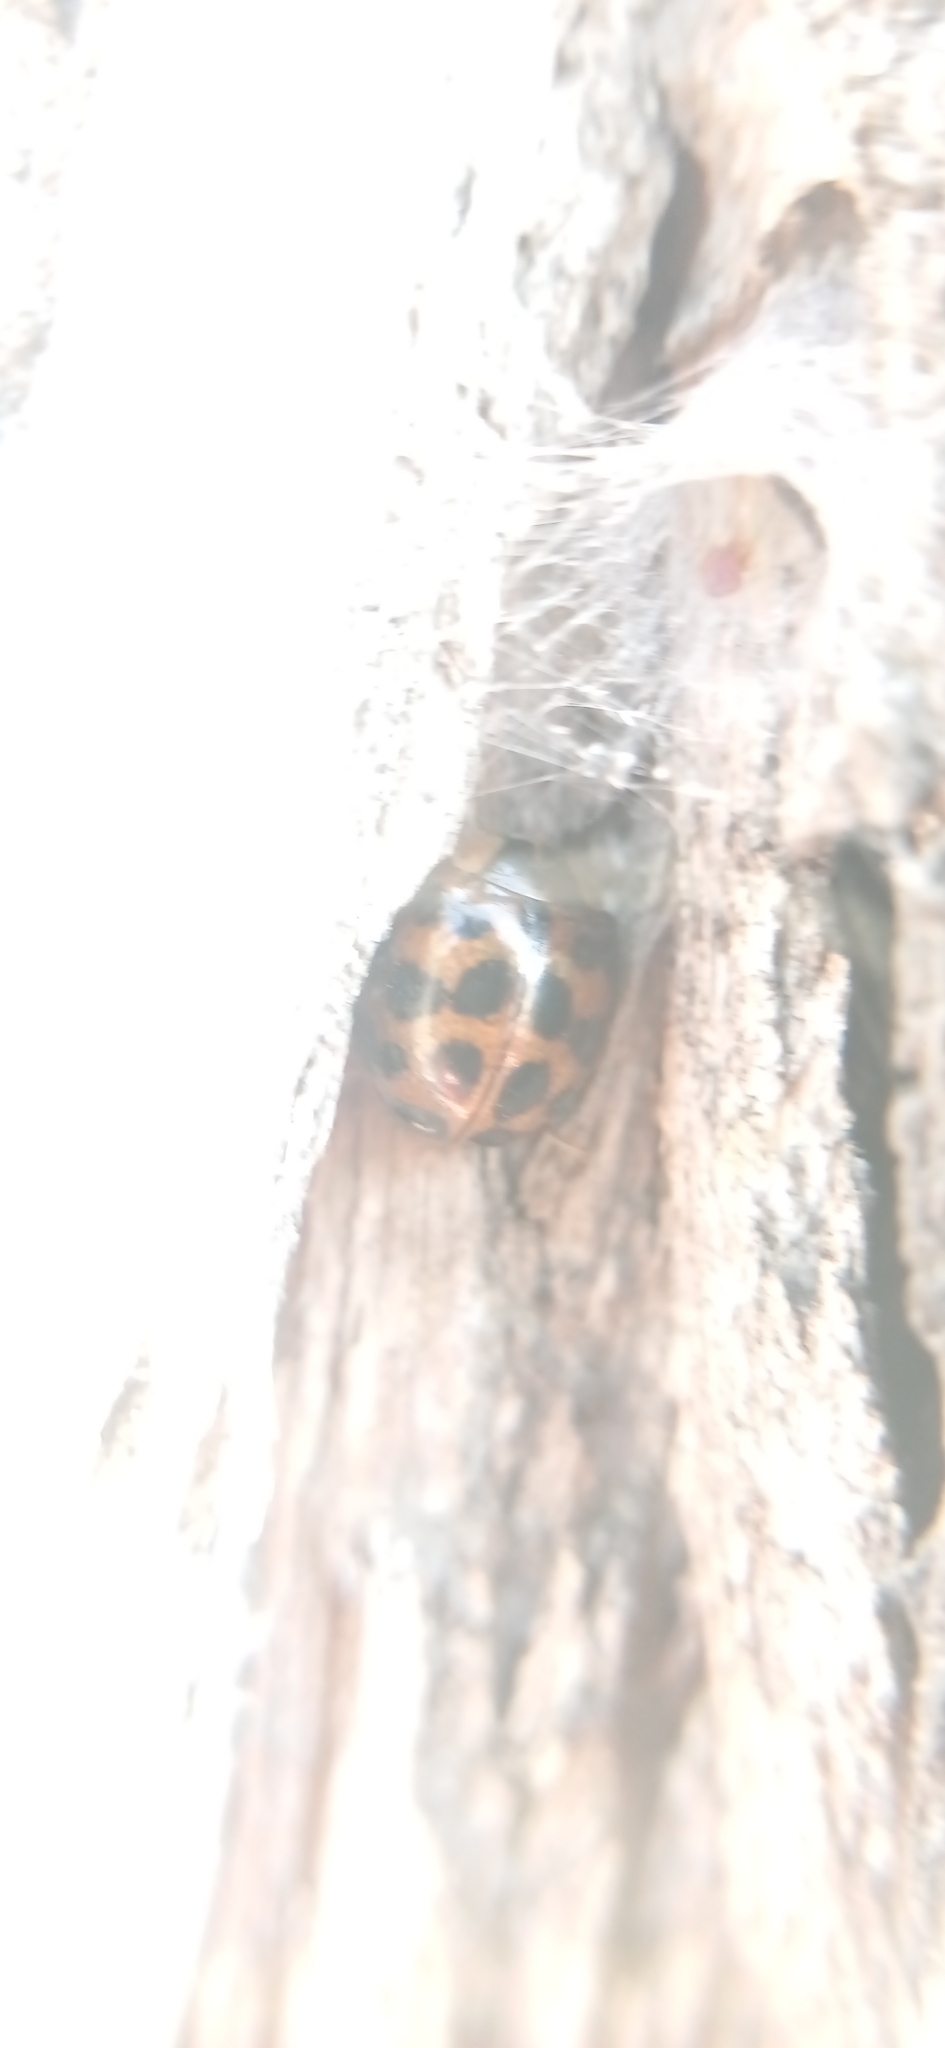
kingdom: Animalia
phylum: Arthropoda
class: Insecta
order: Coleoptera
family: Coccinellidae
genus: Harmonia
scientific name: Harmonia axyridis
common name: Harlequin ladybird
